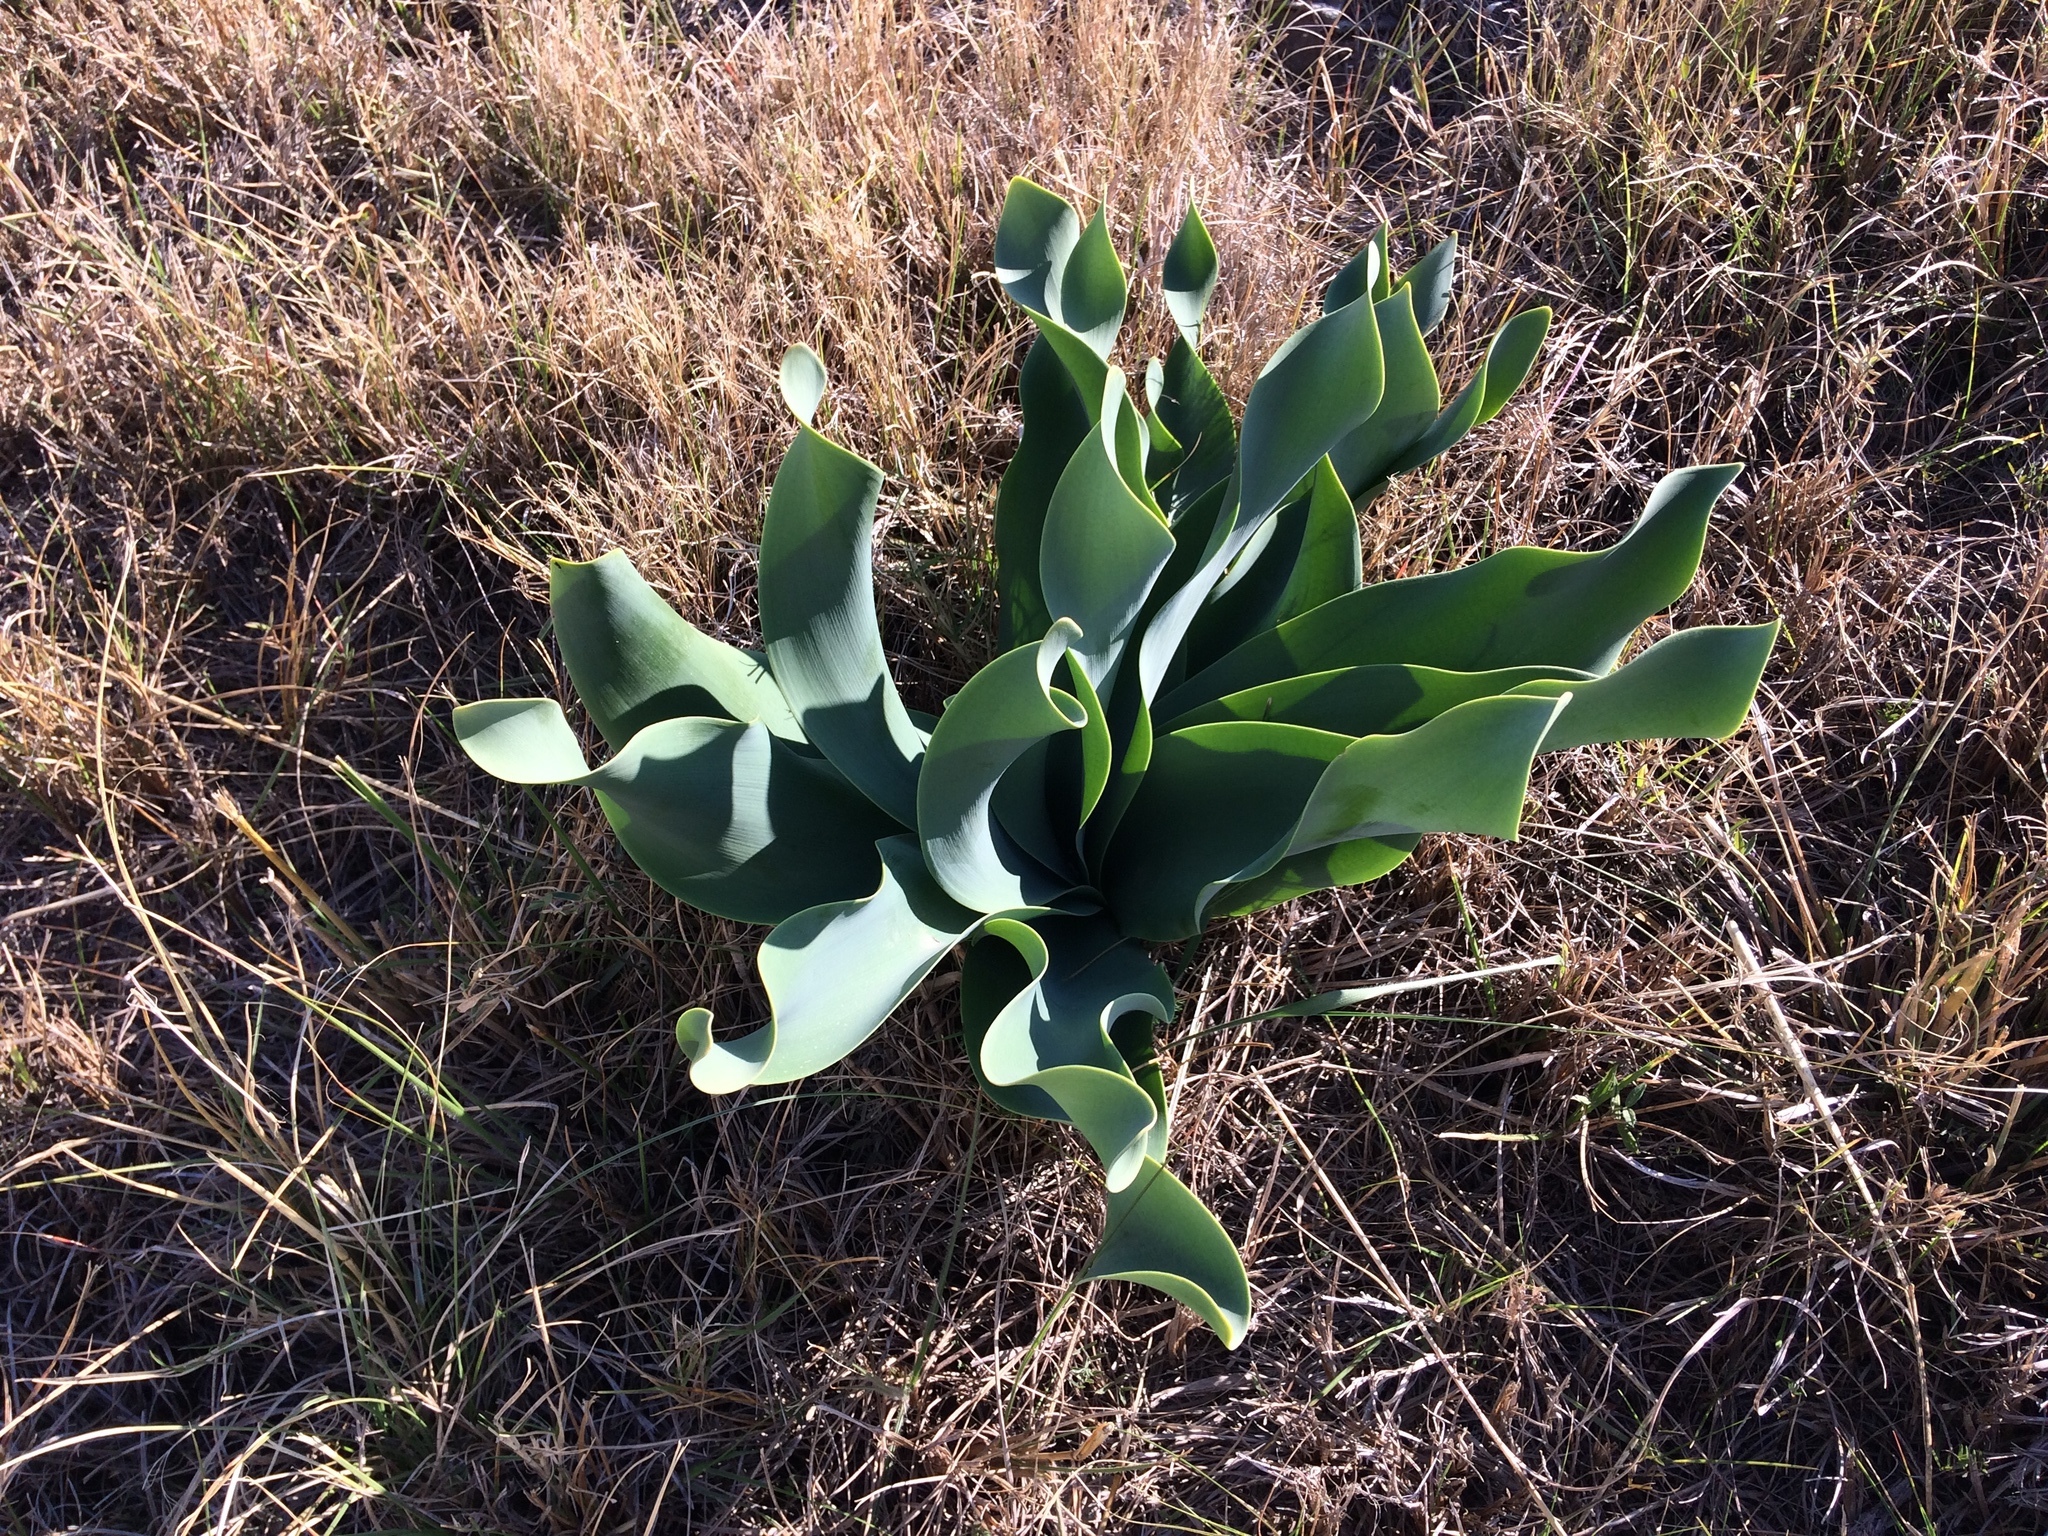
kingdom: Plantae
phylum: Tracheophyta
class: Liliopsida
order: Asparagales
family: Amaryllidaceae
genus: Brunsvigia
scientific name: Brunsvigia litoralis
